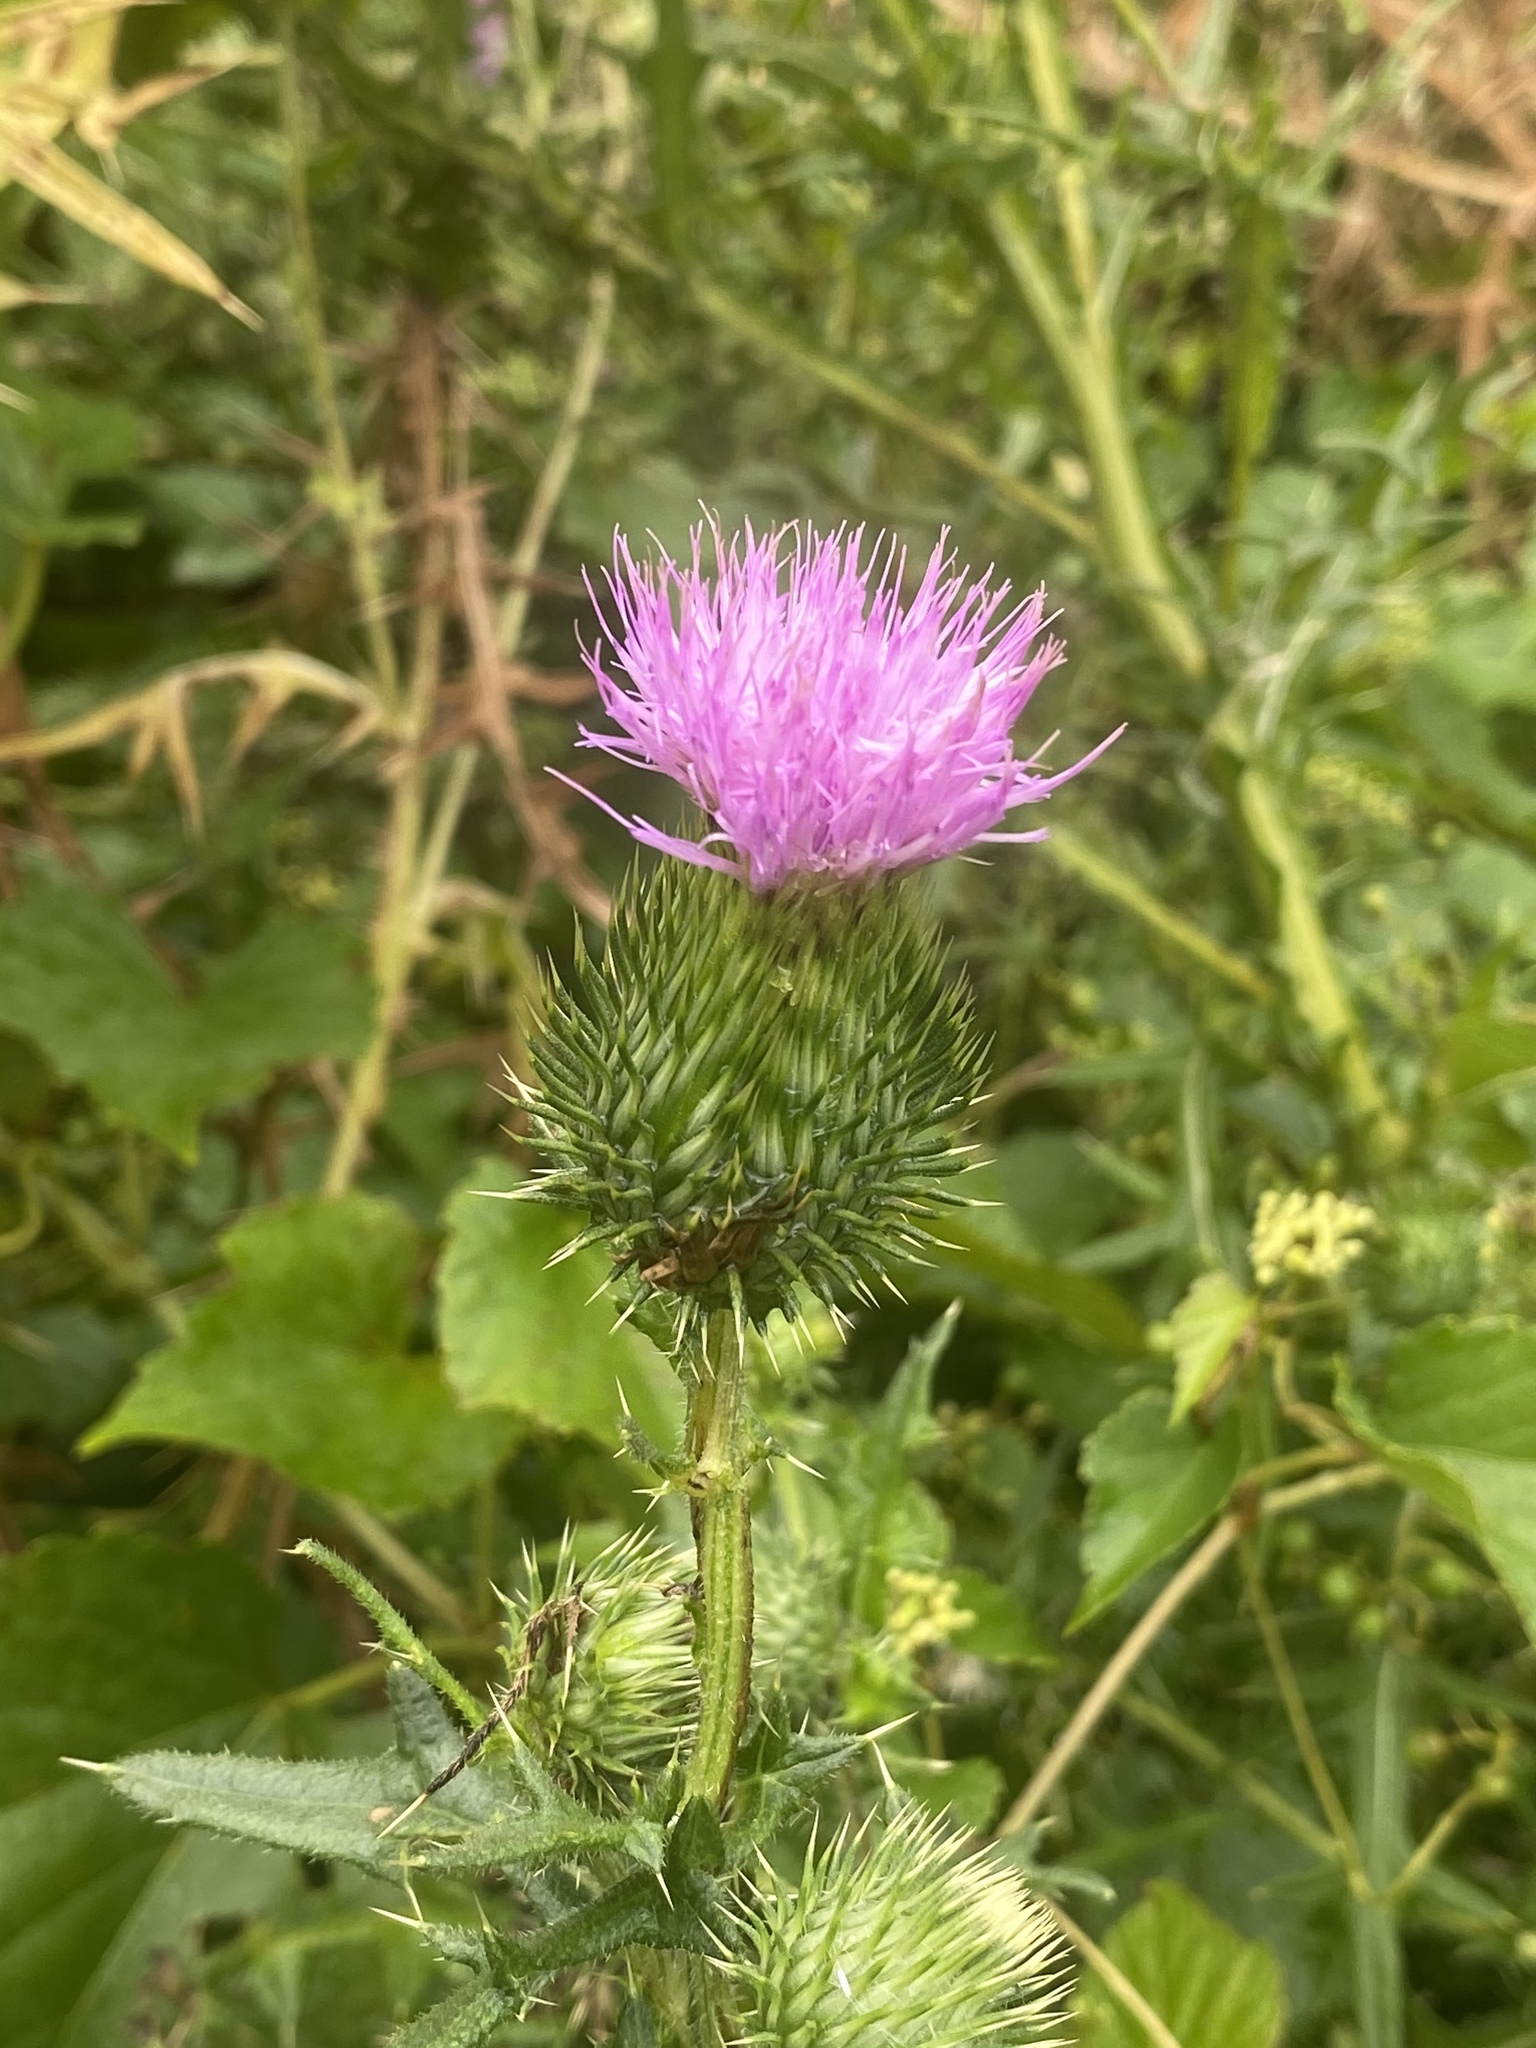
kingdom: Plantae
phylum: Tracheophyta
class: Magnoliopsida
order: Asterales
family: Asteraceae
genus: Cirsium
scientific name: Cirsium vulgare
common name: Bull thistle
